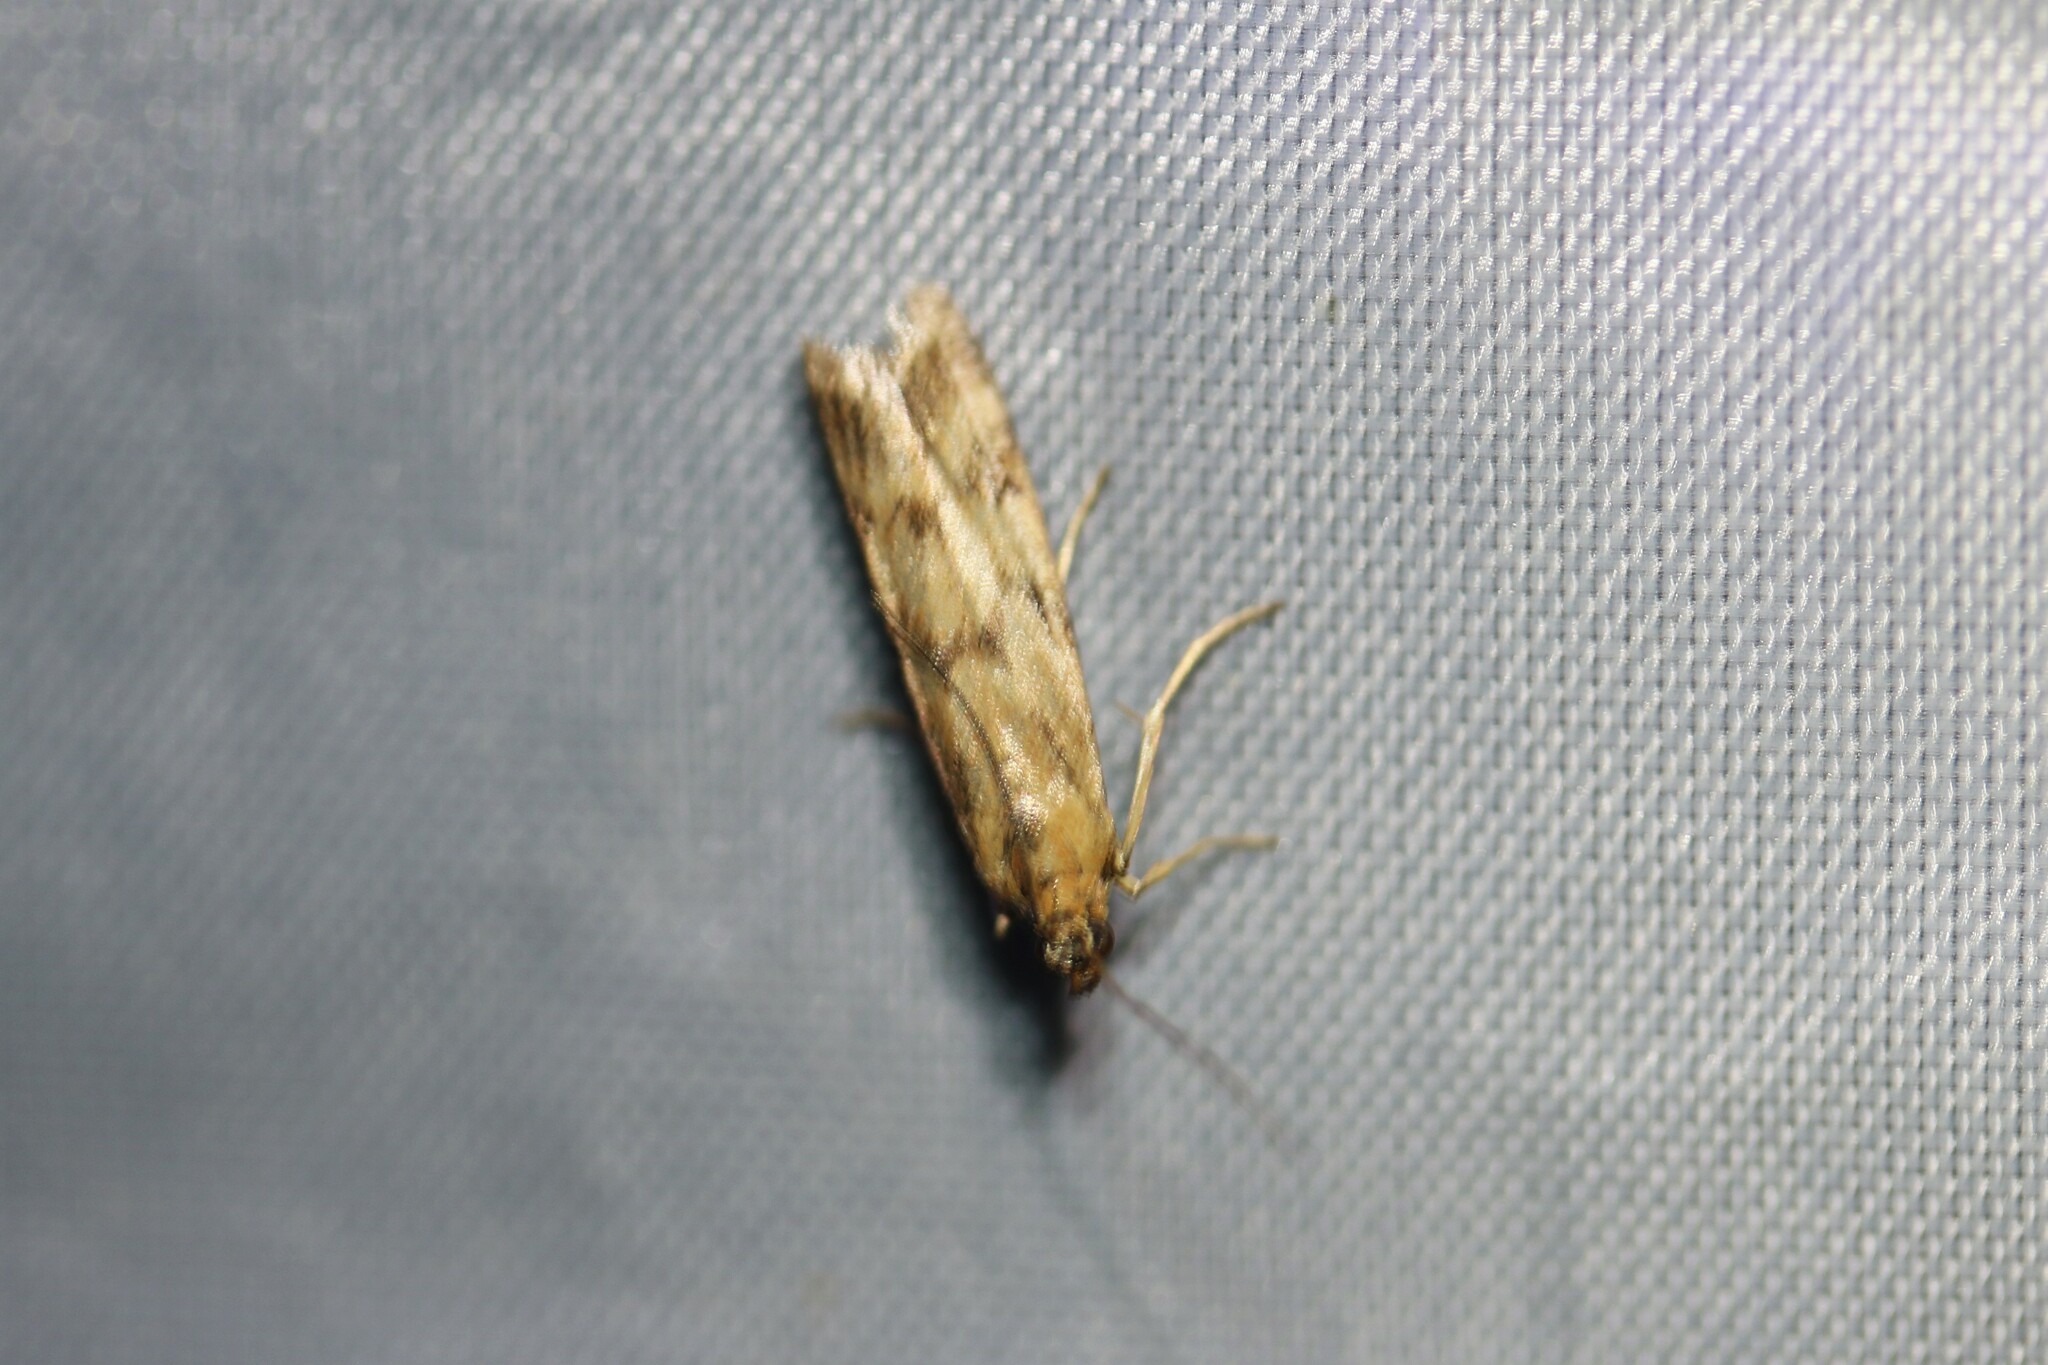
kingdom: Animalia
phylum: Arthropoda
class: Insecta
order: Lepidoptera
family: Pyralidae
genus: Homoeosoma
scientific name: Homoeosoma sinuella
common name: Twin-barred knot-horn
